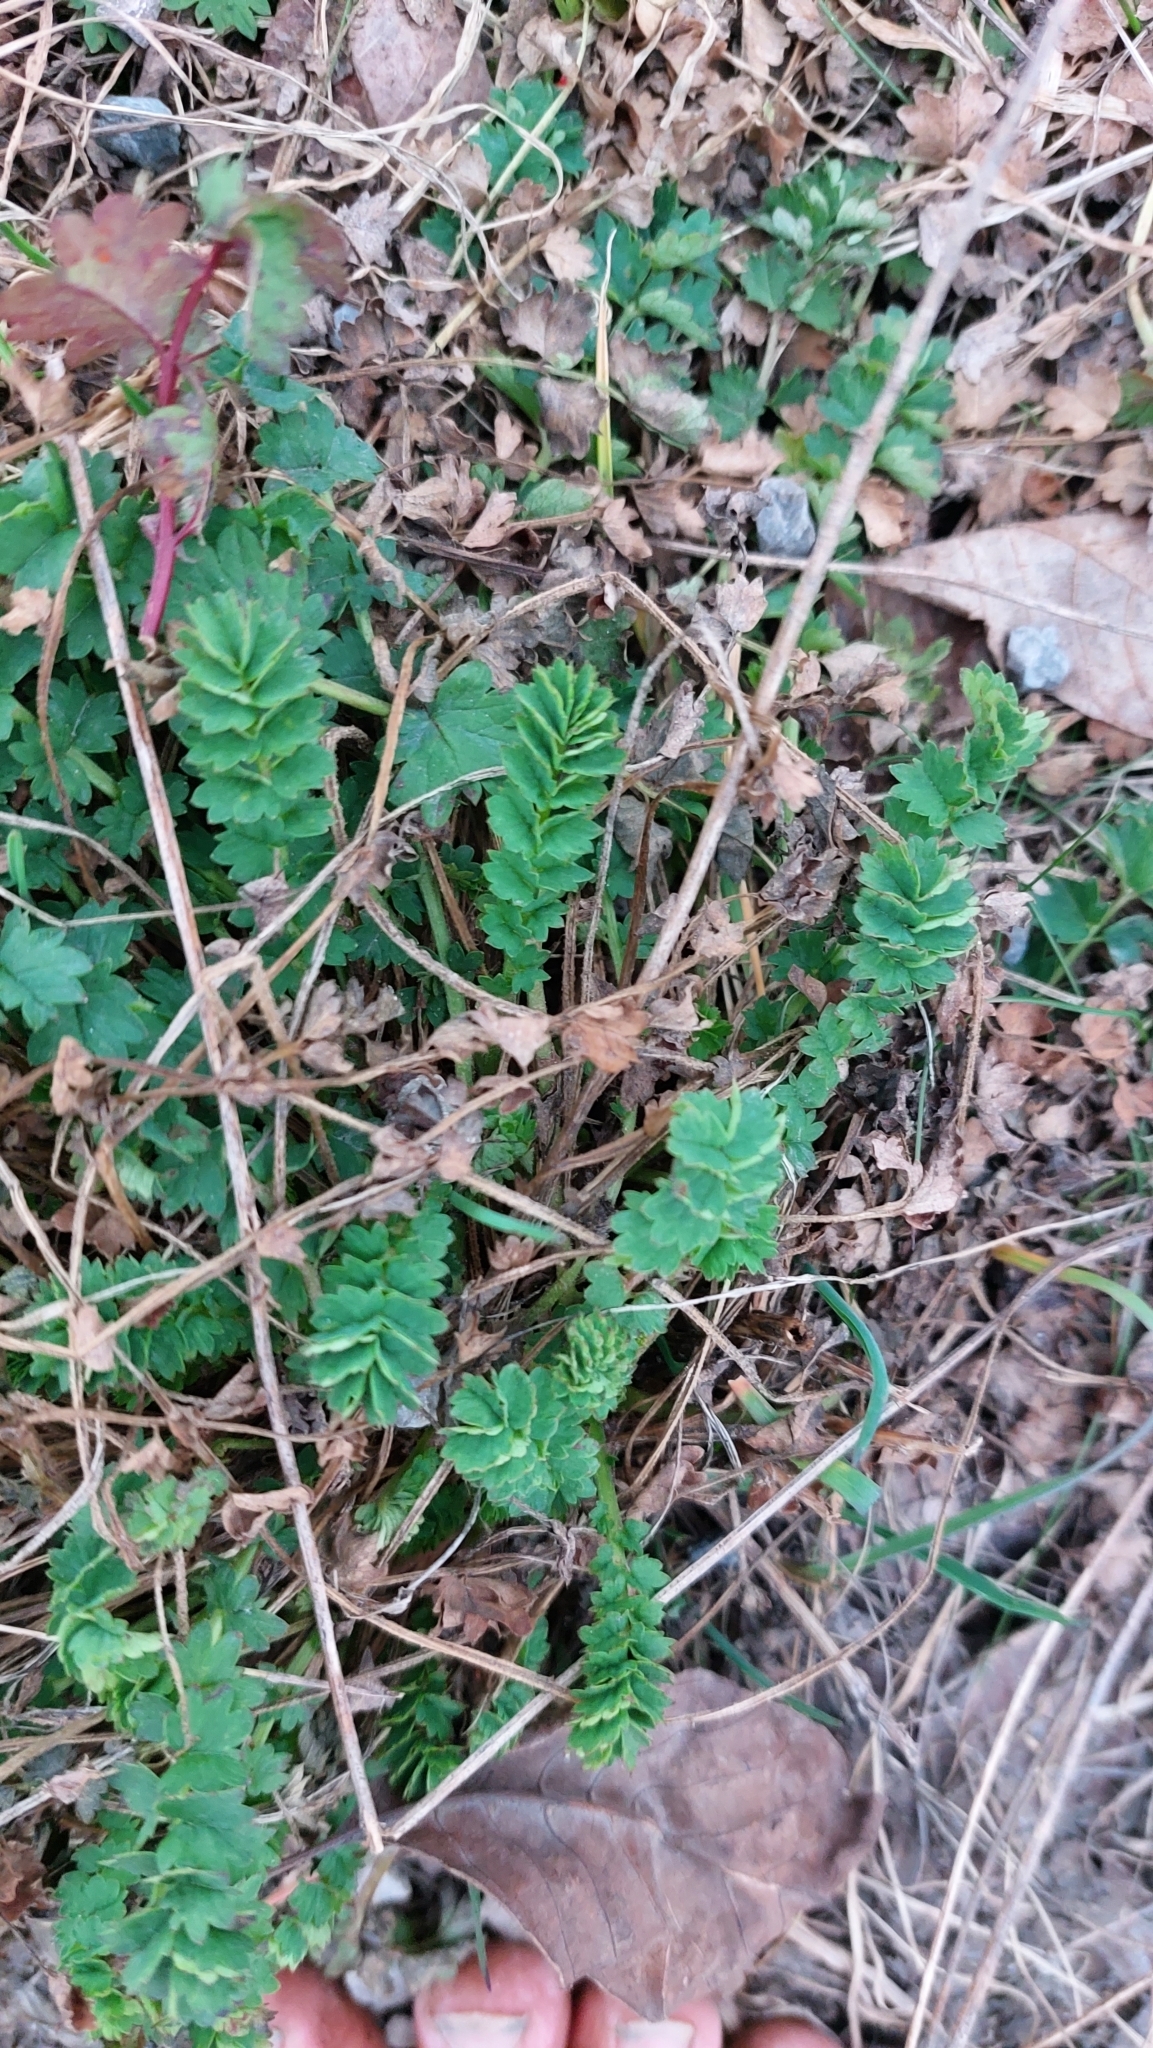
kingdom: Plantae
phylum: Tracheophyta
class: Magnoliopsida
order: Rosales
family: Rosaceae
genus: Poterium
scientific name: Poterium sanguisorba
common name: Salad burnet
